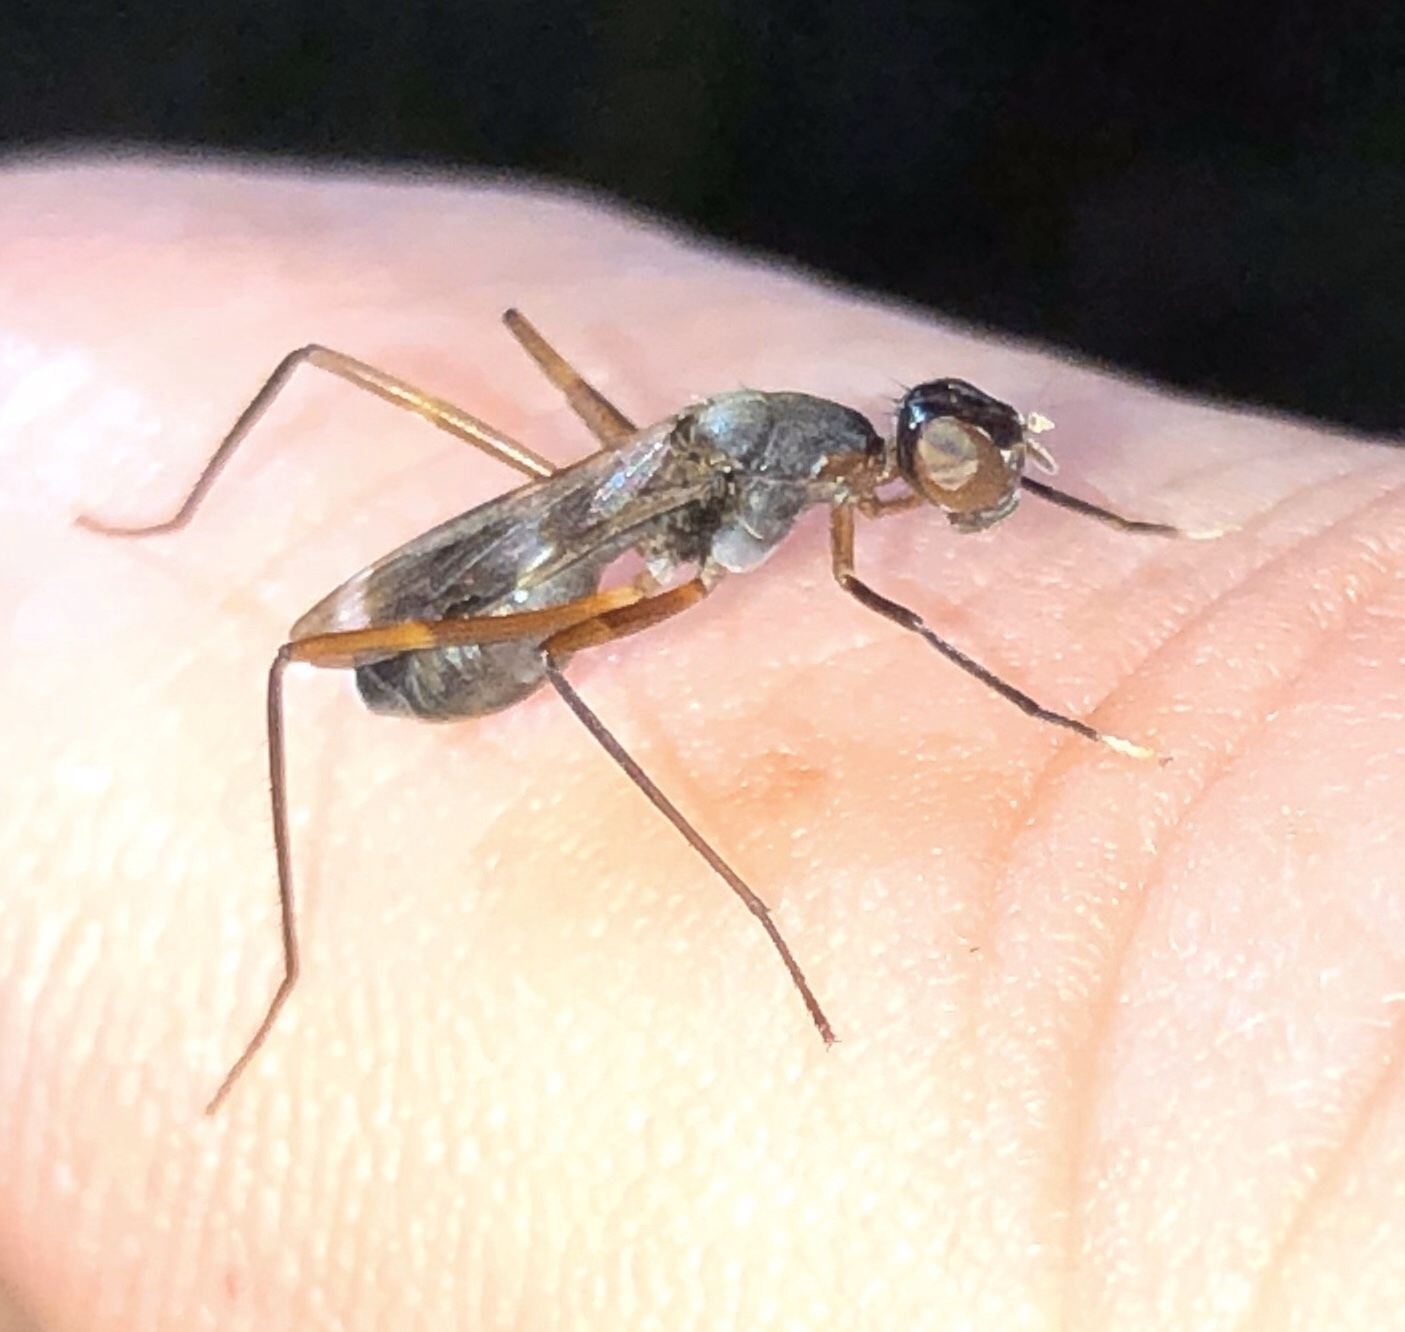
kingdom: Animalia
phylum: Arthropoda
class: Insecta
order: Diptera
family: Micropezidae
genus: Taeniaptera
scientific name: Taeniaptera trivittata
